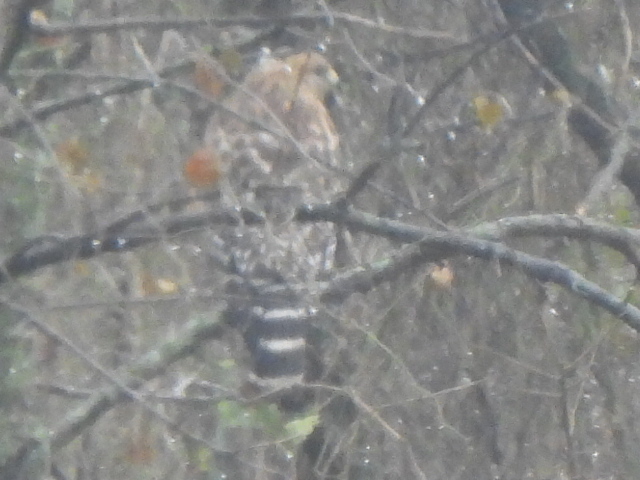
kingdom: Animalia
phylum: Chordata
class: Aves
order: Accipitriformes
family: Accipitridae
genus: Buteo
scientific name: Buteo lineatus
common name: Red-shouldered hawk
